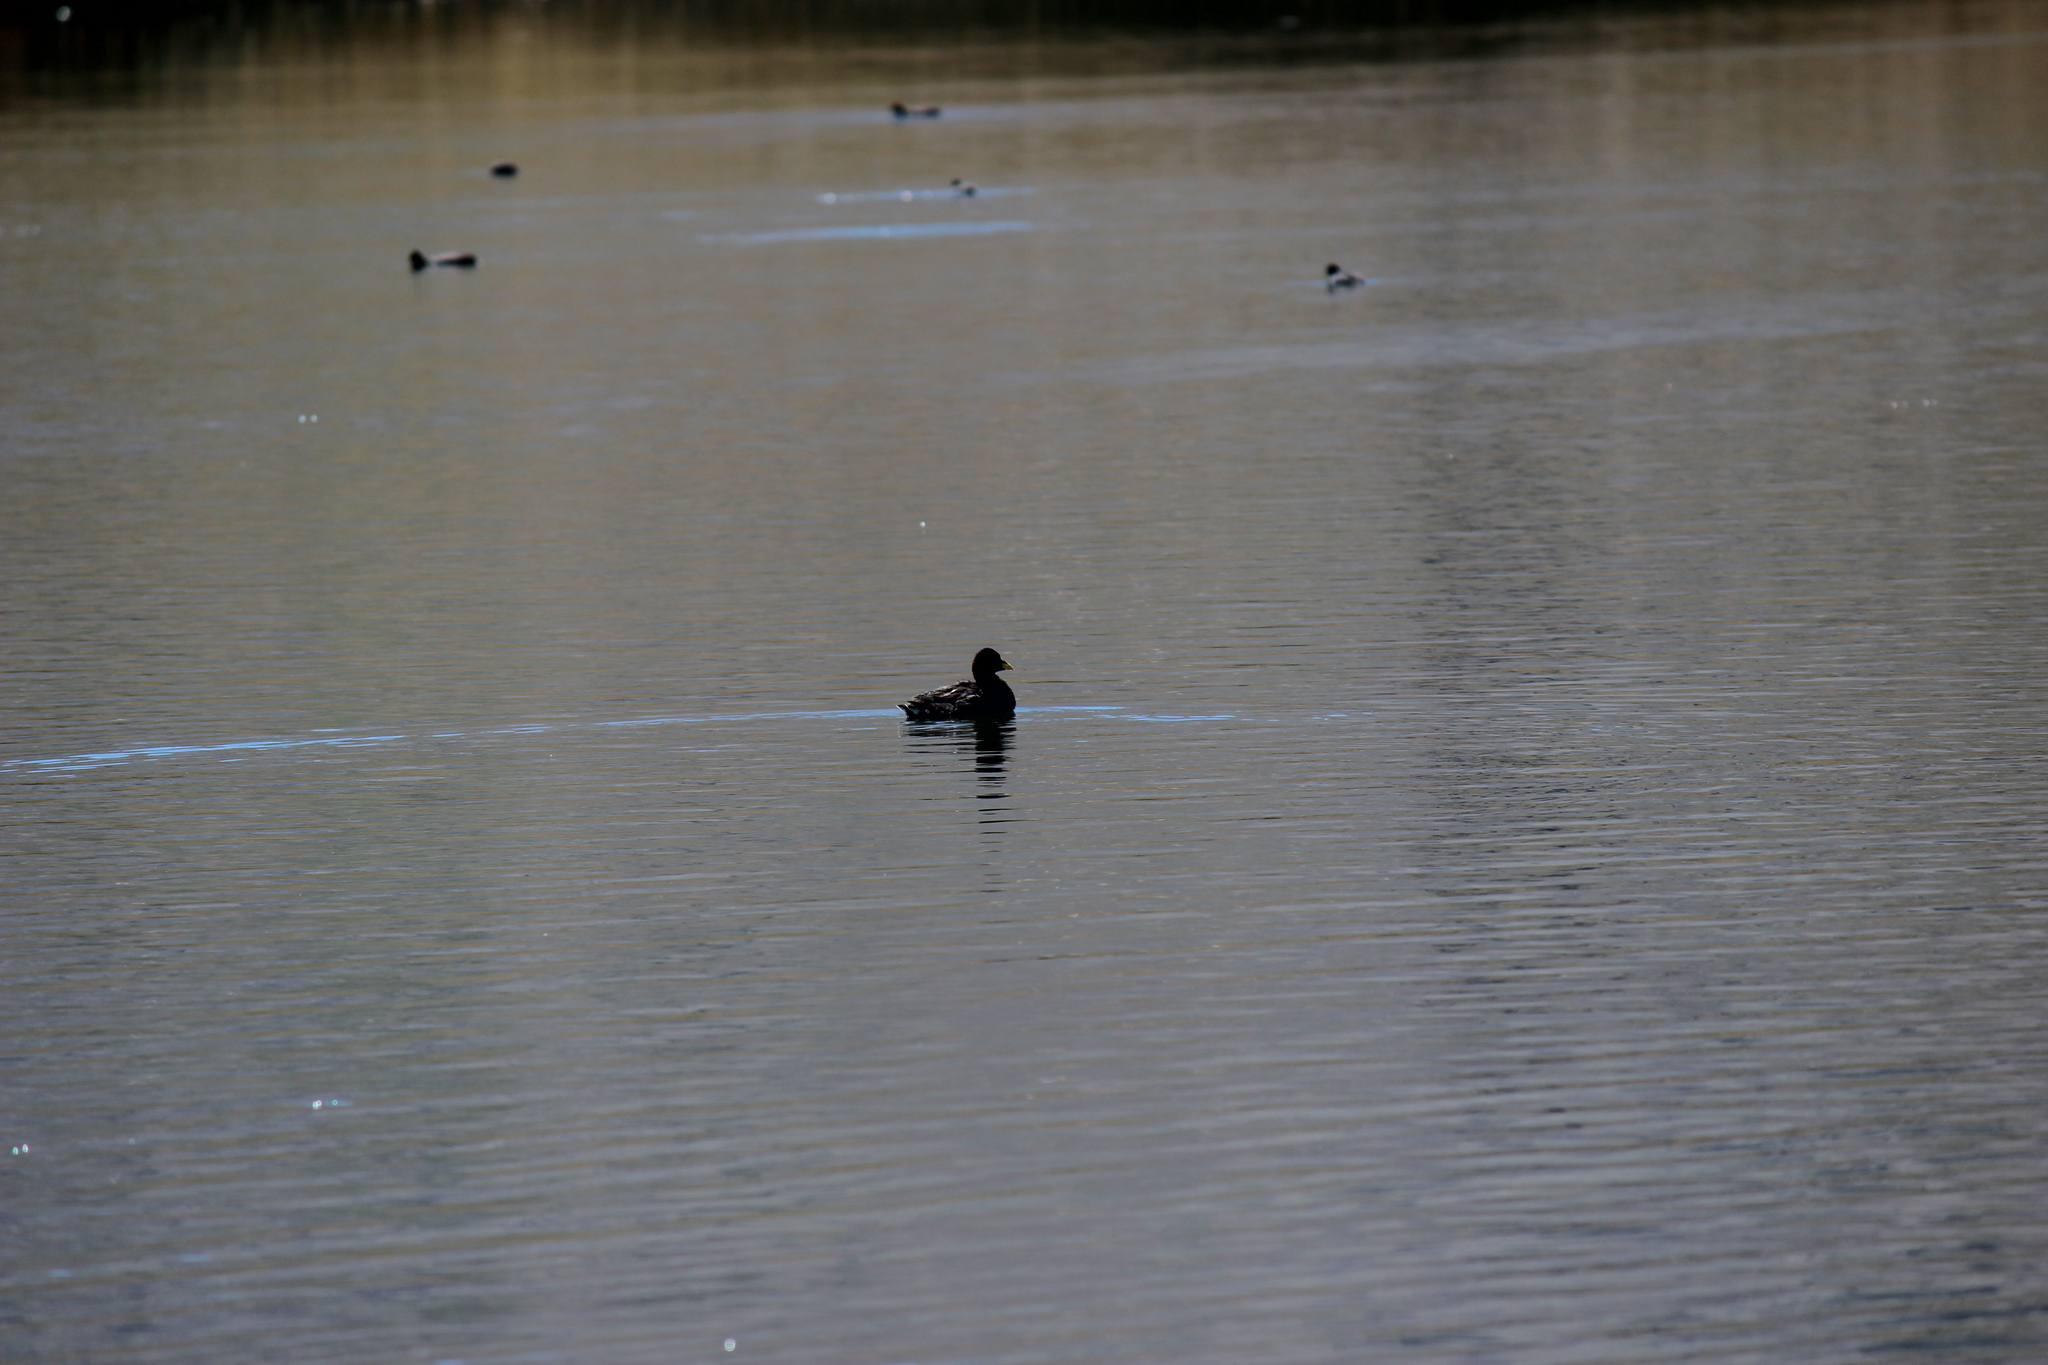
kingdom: Animalia
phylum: Chordata
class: Aves
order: Gruiformes
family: Rallidae
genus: Fulica
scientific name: Fulica armillata
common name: Red-gartered coot
